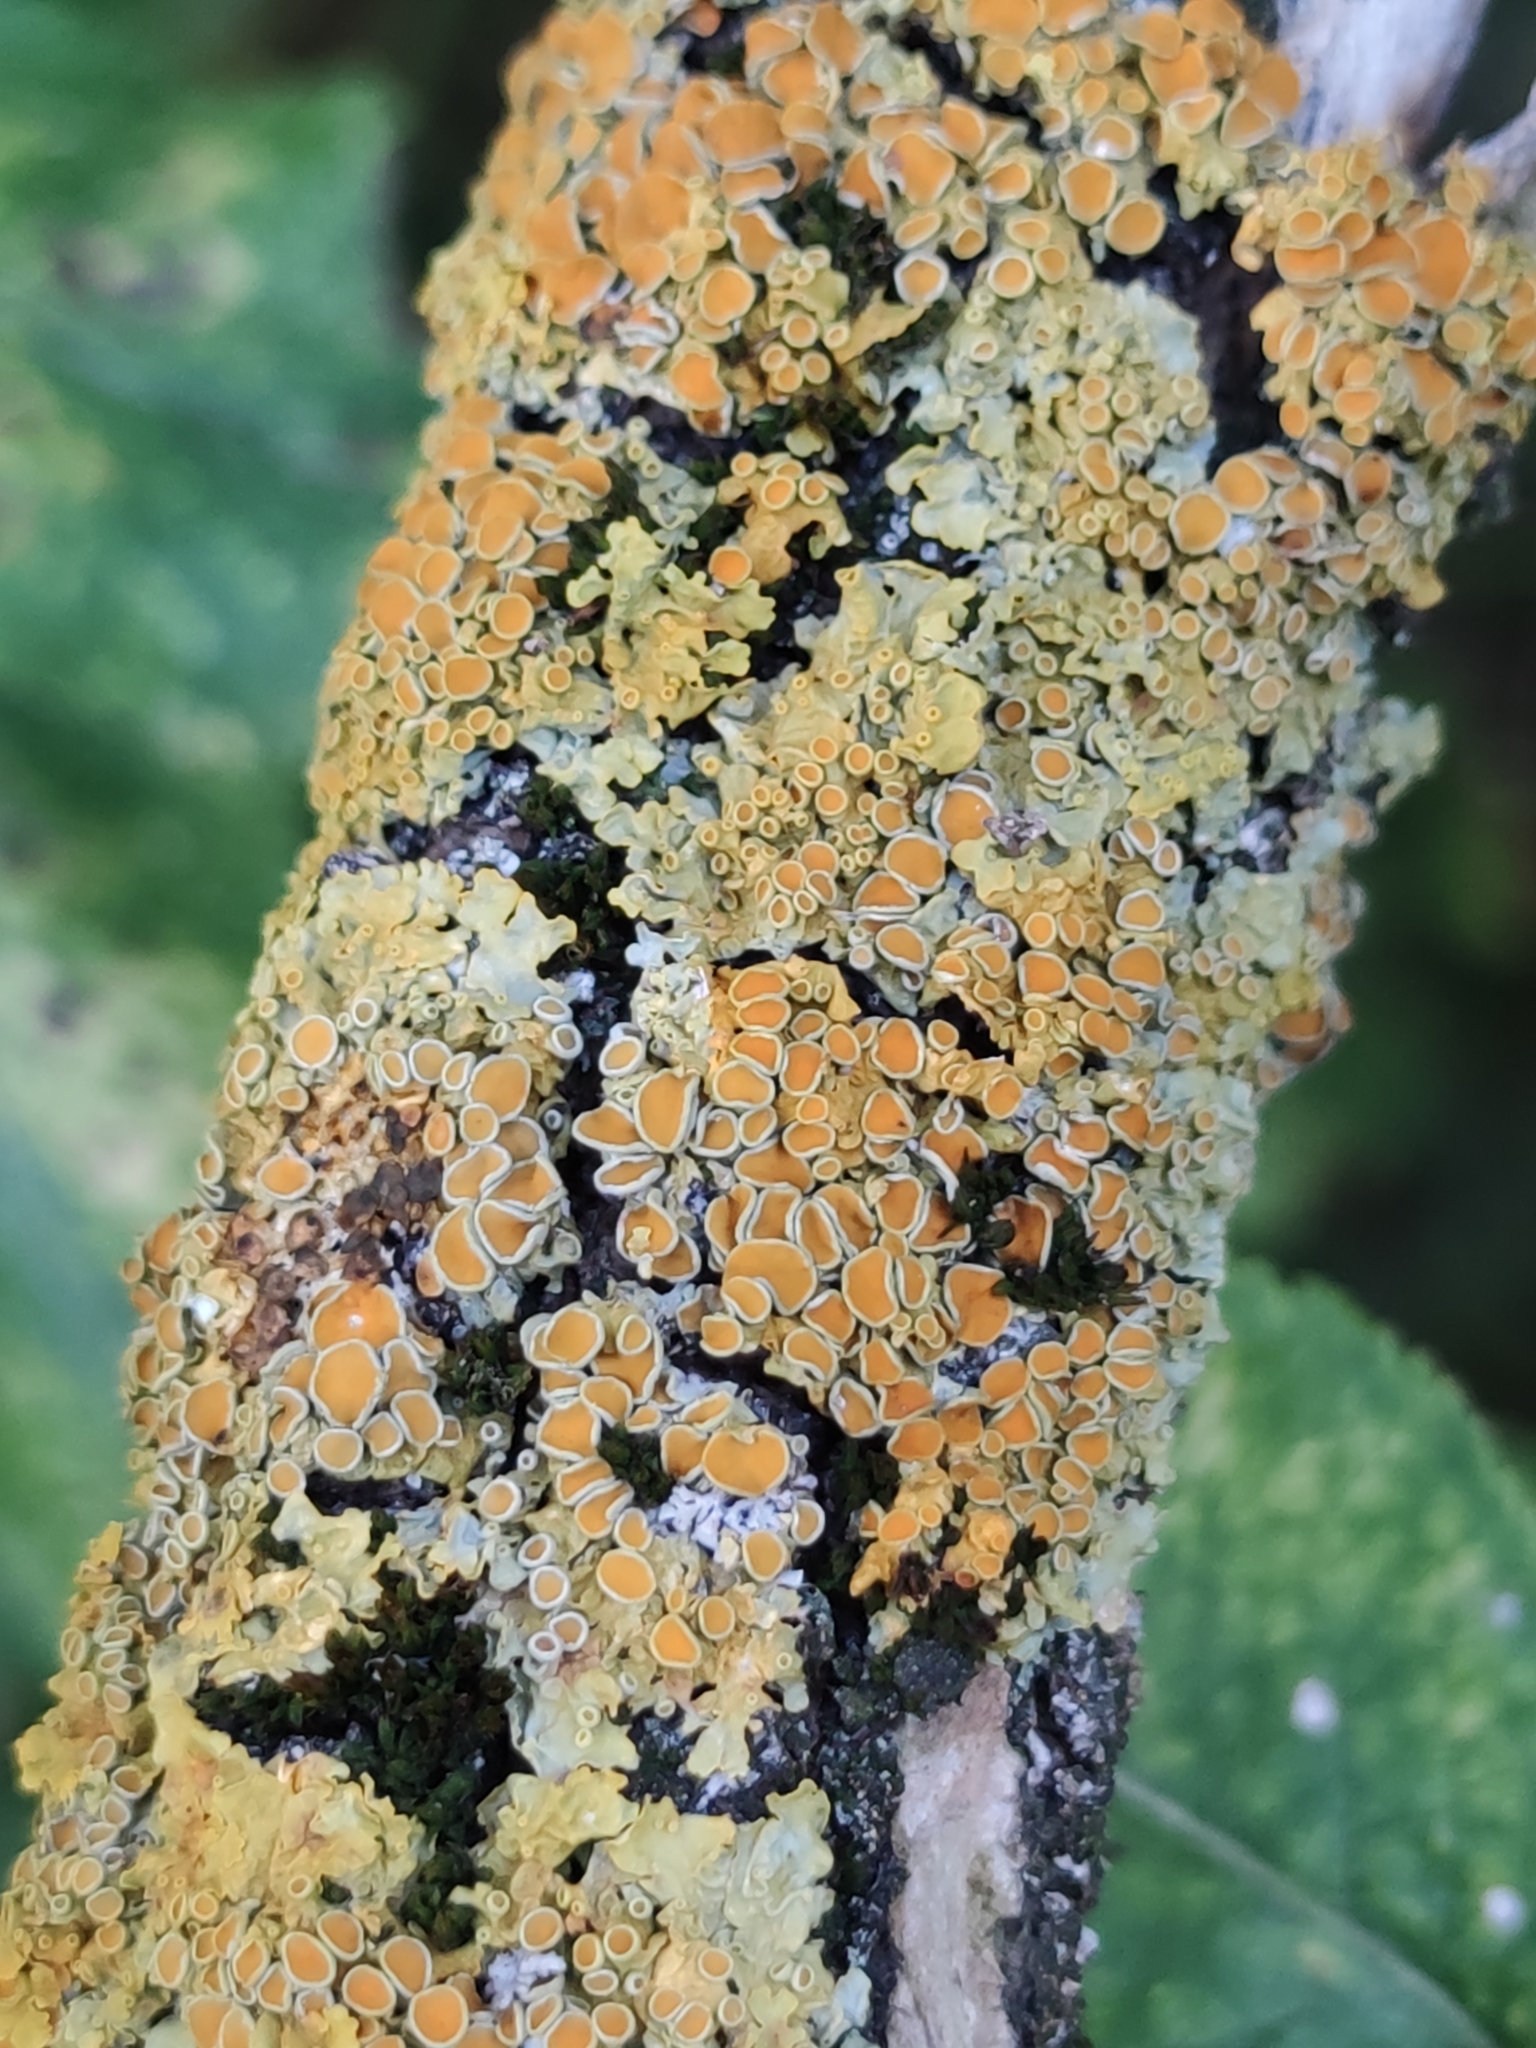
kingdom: Fungi
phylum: Ascomycota
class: Lecanoromycetes
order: Teloschistales
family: Teloschistaceae
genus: Xanthoria
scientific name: Xanthoria parietina
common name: Common orange lichen
